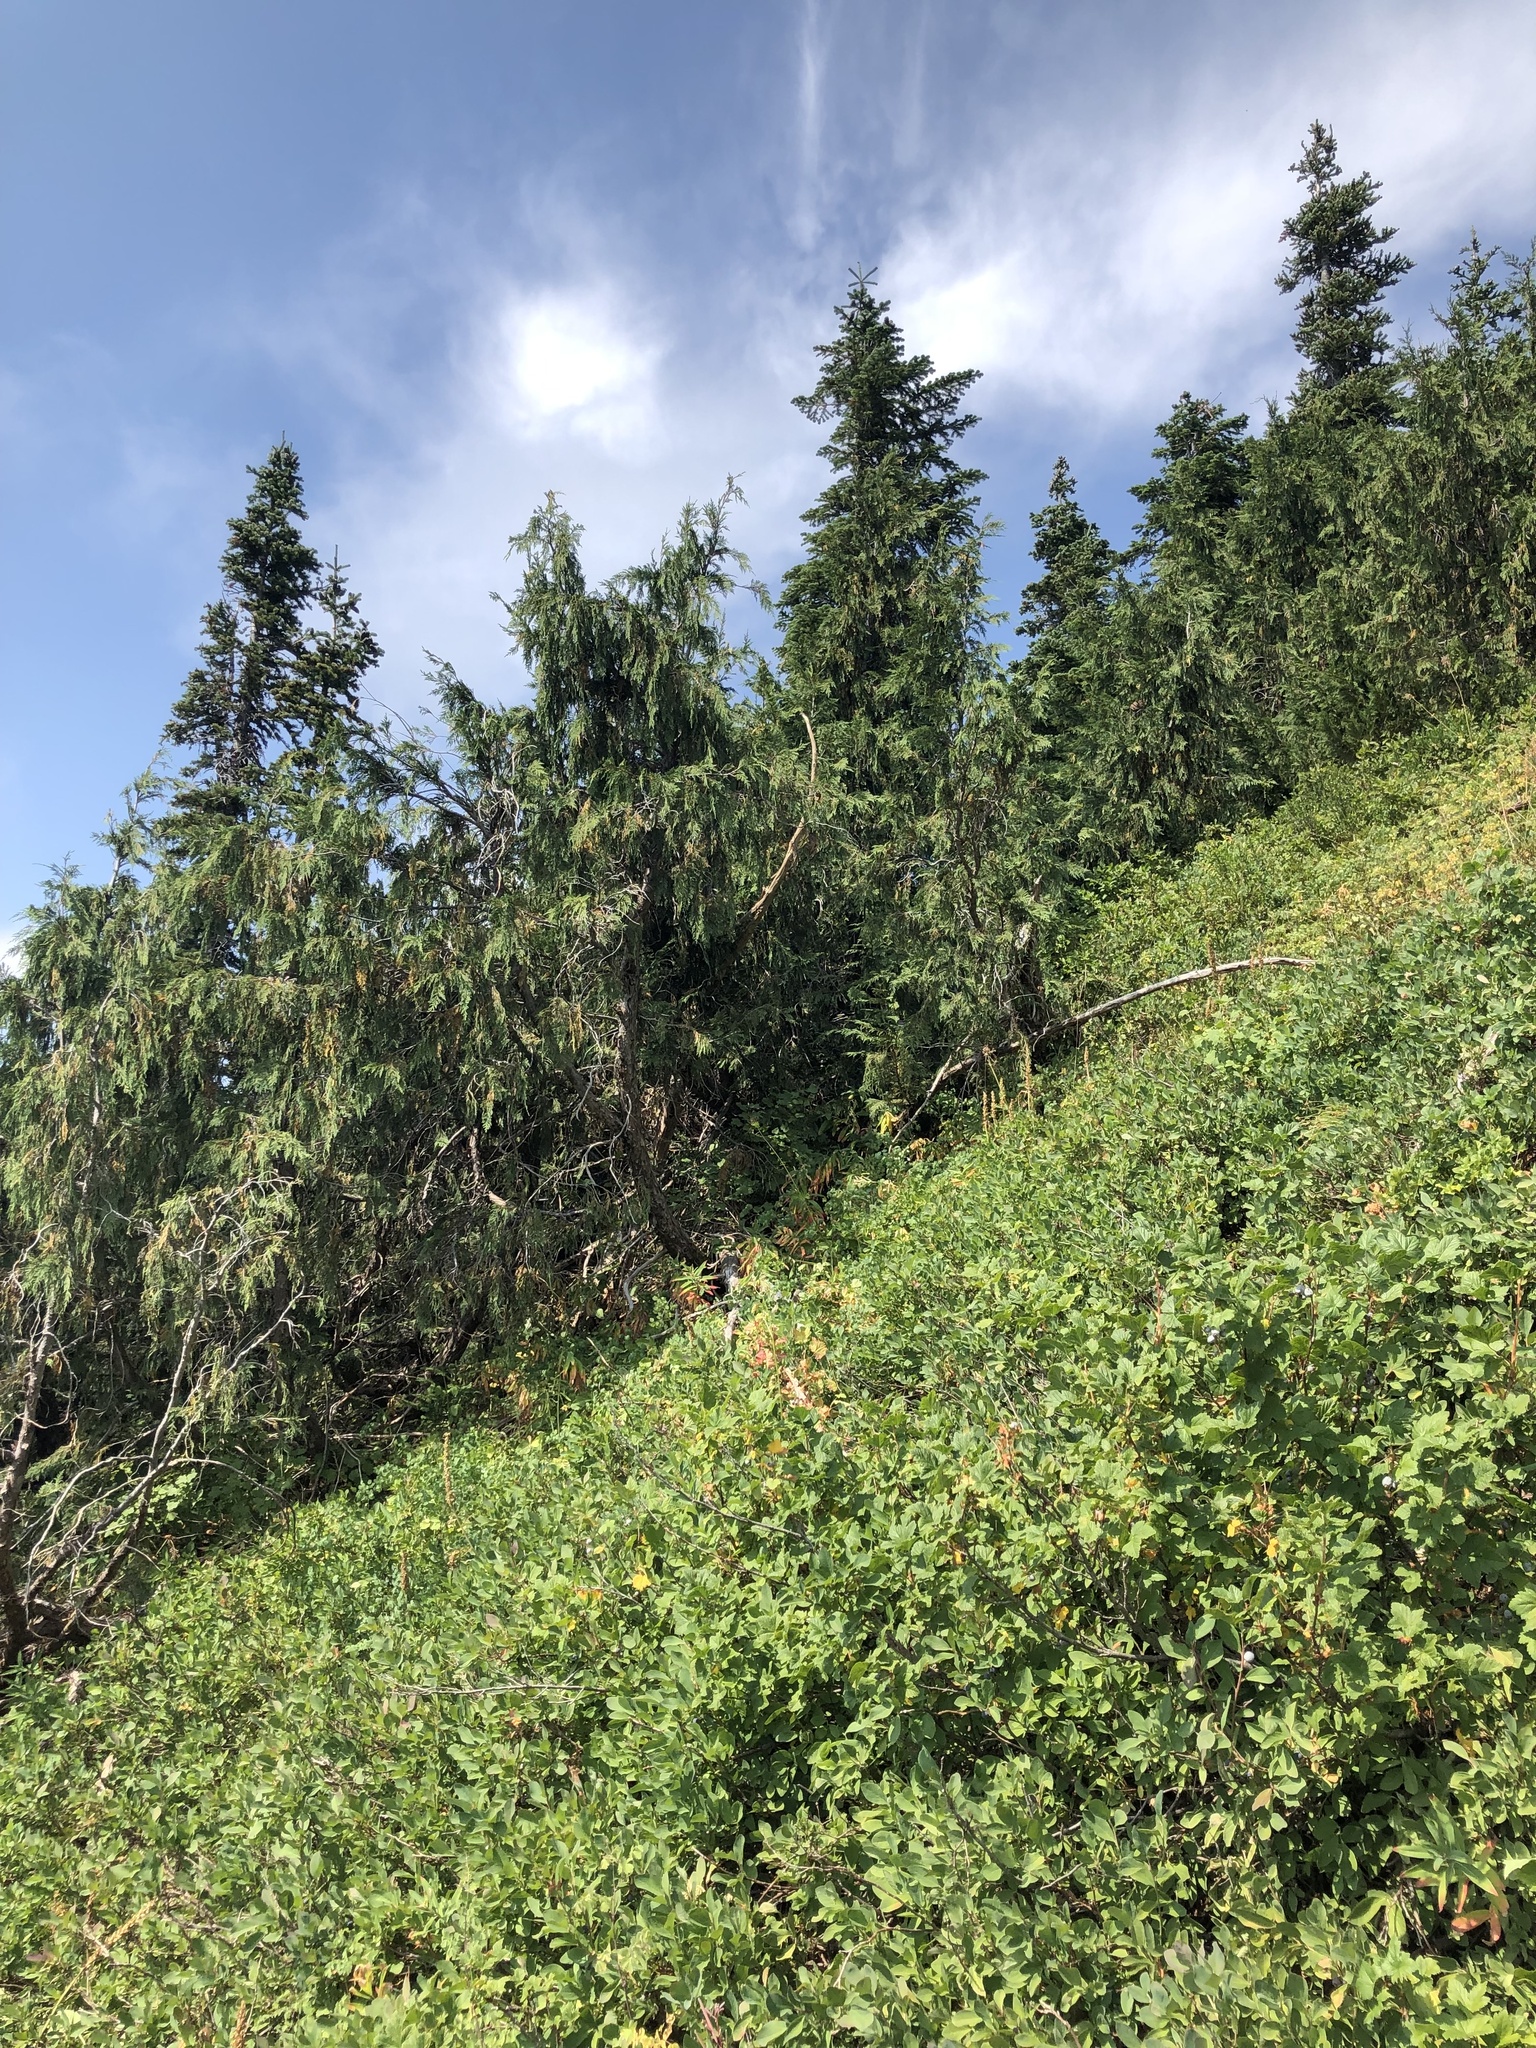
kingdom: Plantae
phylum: Tracheophyta
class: Pinopsida
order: Pinales
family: Cupressaceae
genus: Xanthocyparis
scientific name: Xanthocyparis nootkatensis
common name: Nootka cypress
